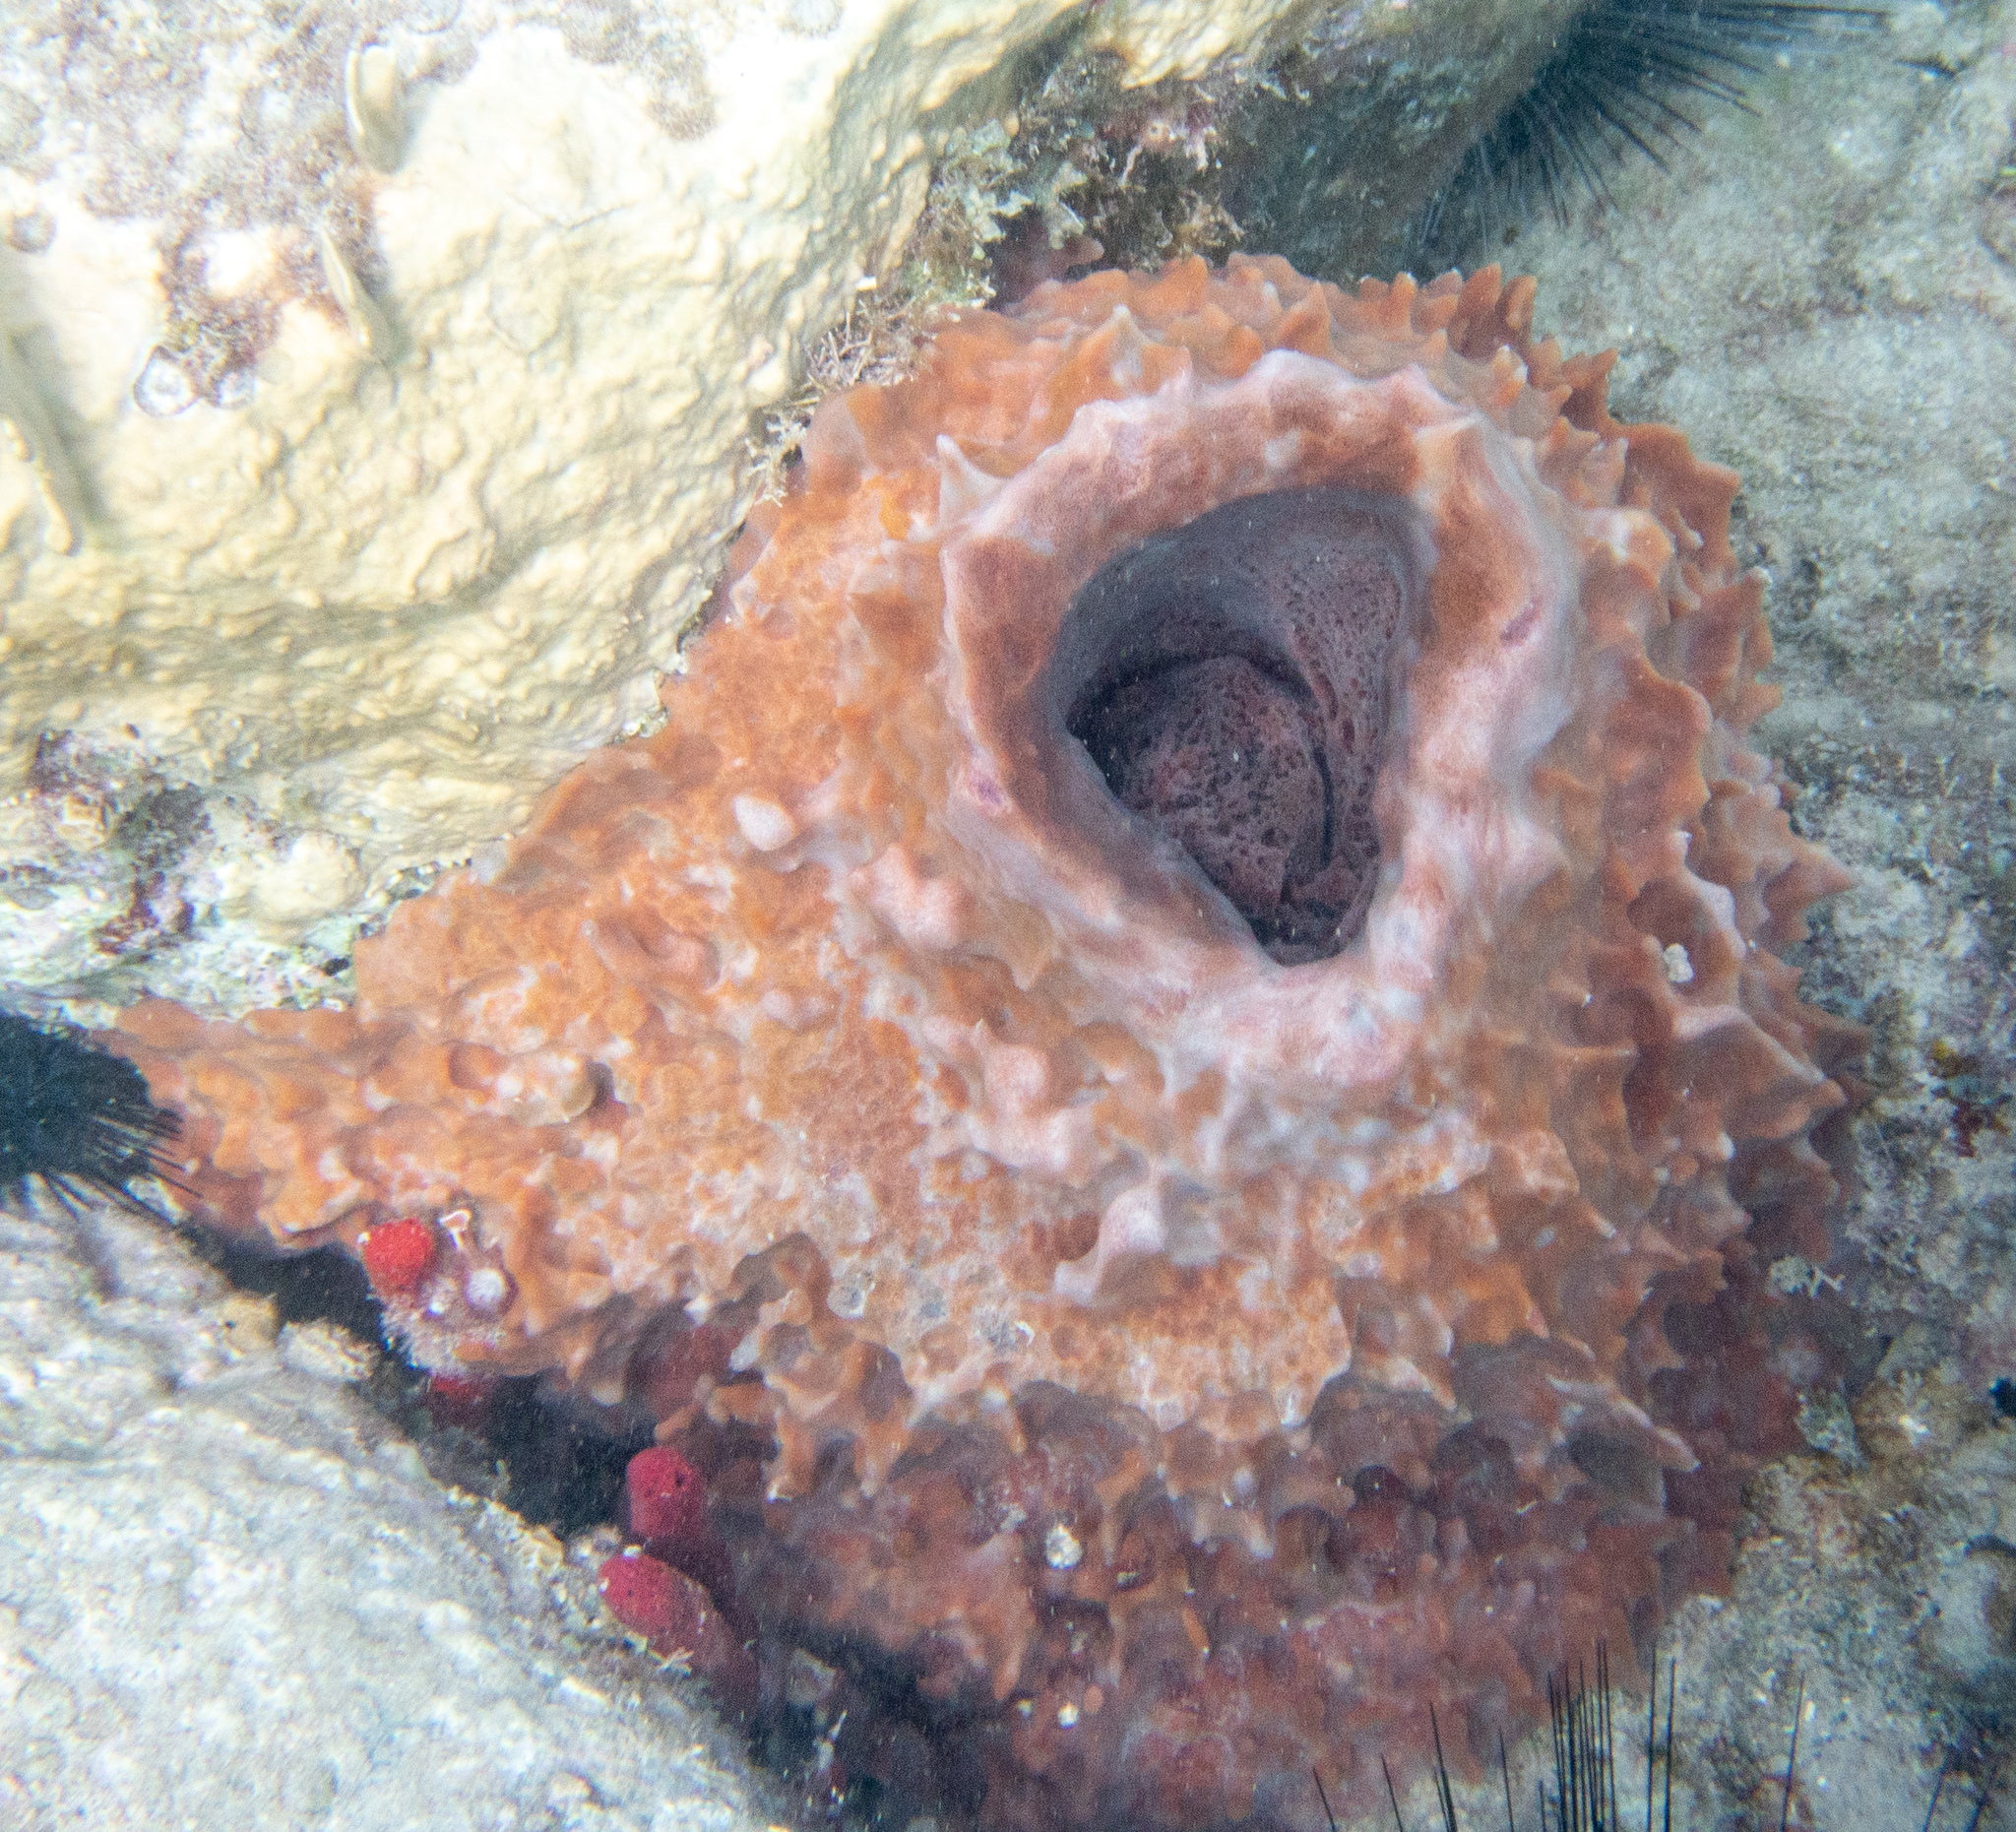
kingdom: Animalia
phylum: Porifera
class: Demospongiae
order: Haplosclerida
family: Petrosiidae
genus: Xestospongia
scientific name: Xestospongia muta
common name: Giant barrel sponge
